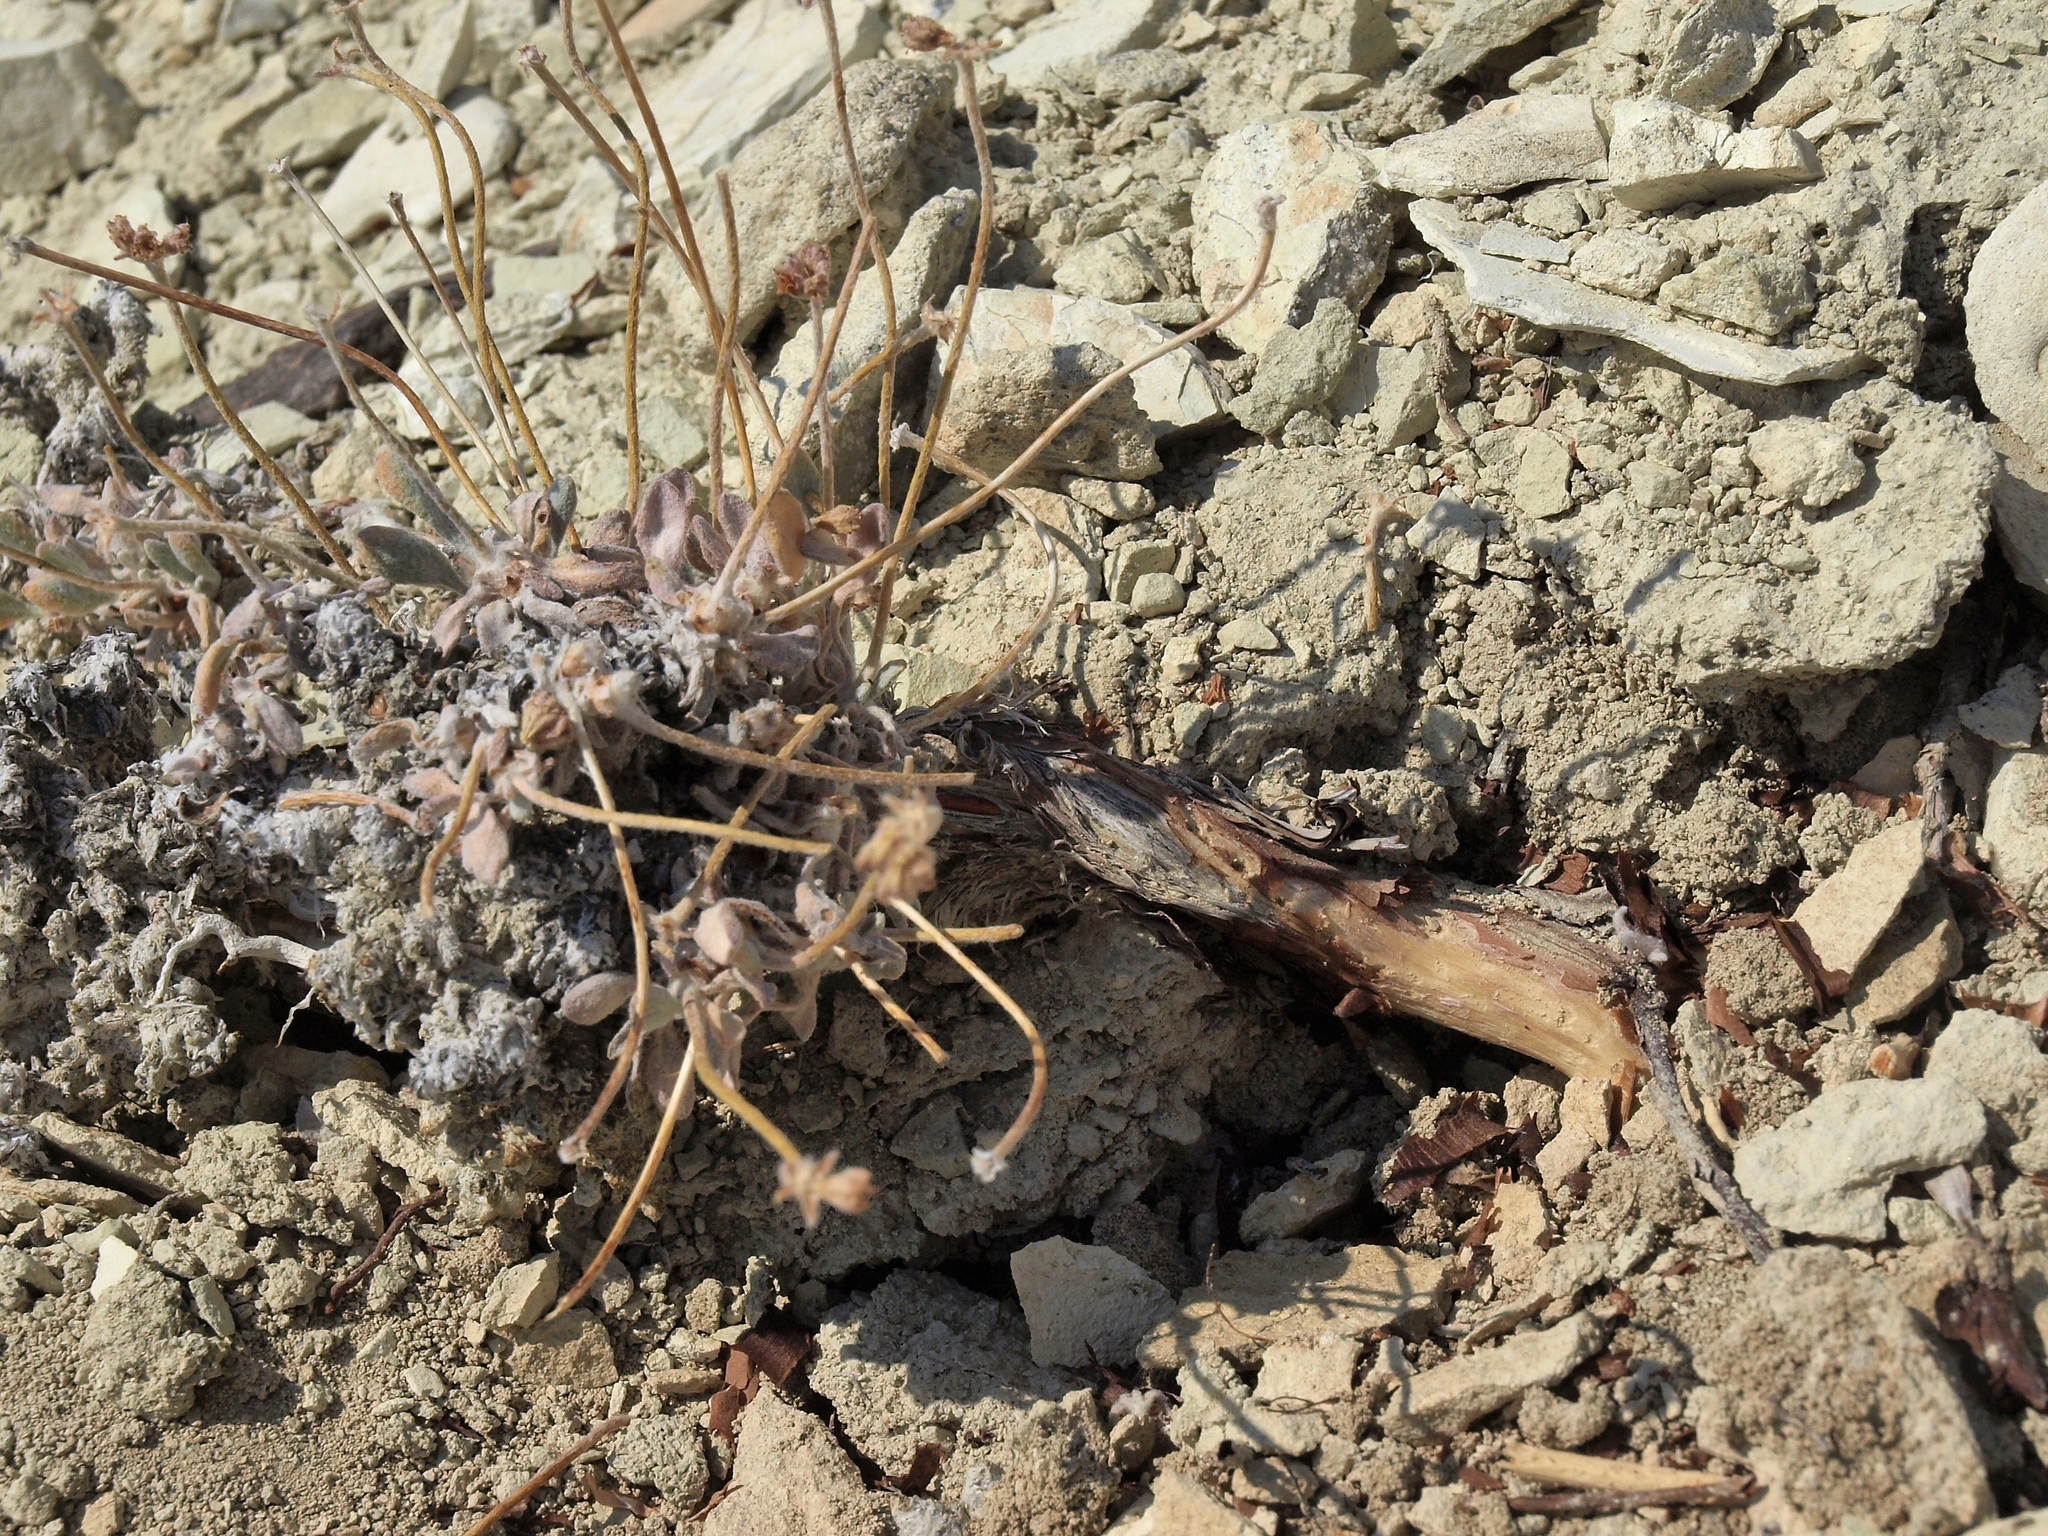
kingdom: Plantae
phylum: Tracheophyta
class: Magnoliopsida
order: Caryophyllales
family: Polygonaceae
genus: Eriogonum
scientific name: Eriogonum tiehmii
